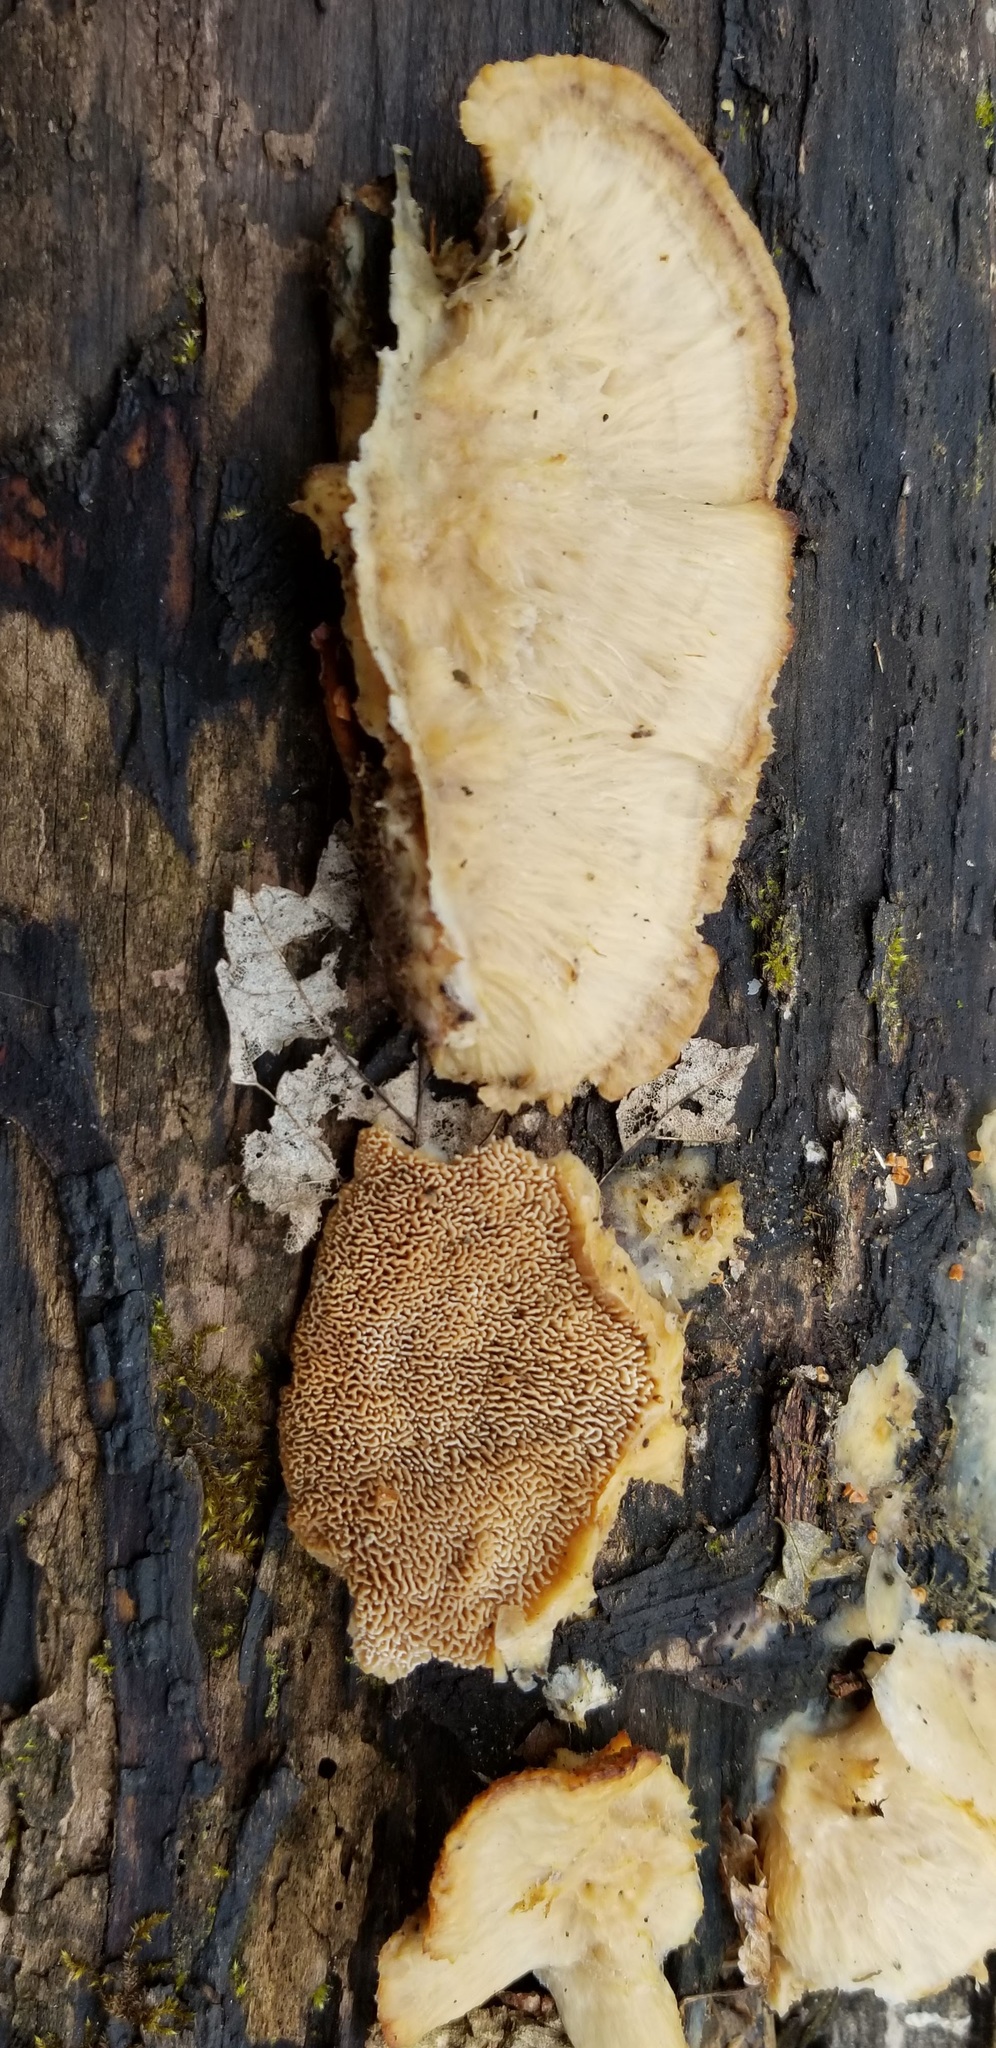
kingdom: Fungi
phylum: Basidiomycota
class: Agaricomycetes
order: Polyporales
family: Irpicaceae
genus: Trametopsis
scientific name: Trametopsis cervina
